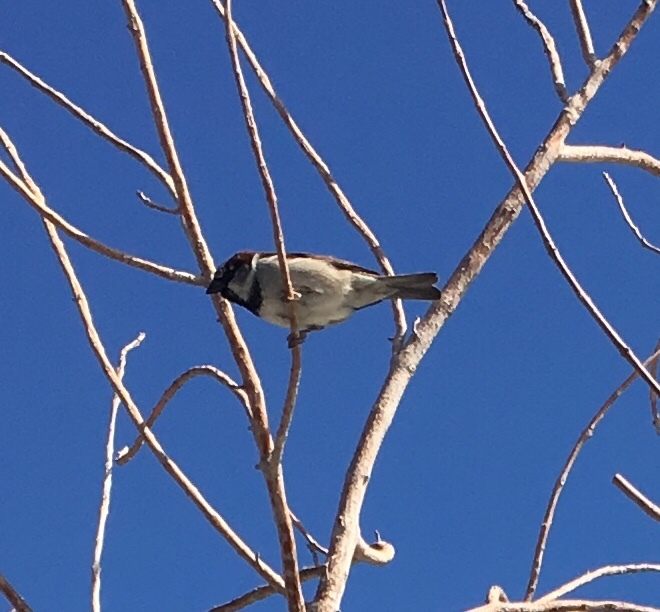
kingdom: Animalia
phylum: Chordata
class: Aves
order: Passeriformes
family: Passeridae
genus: Passer
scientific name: Passer domesticus
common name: House sparrow
